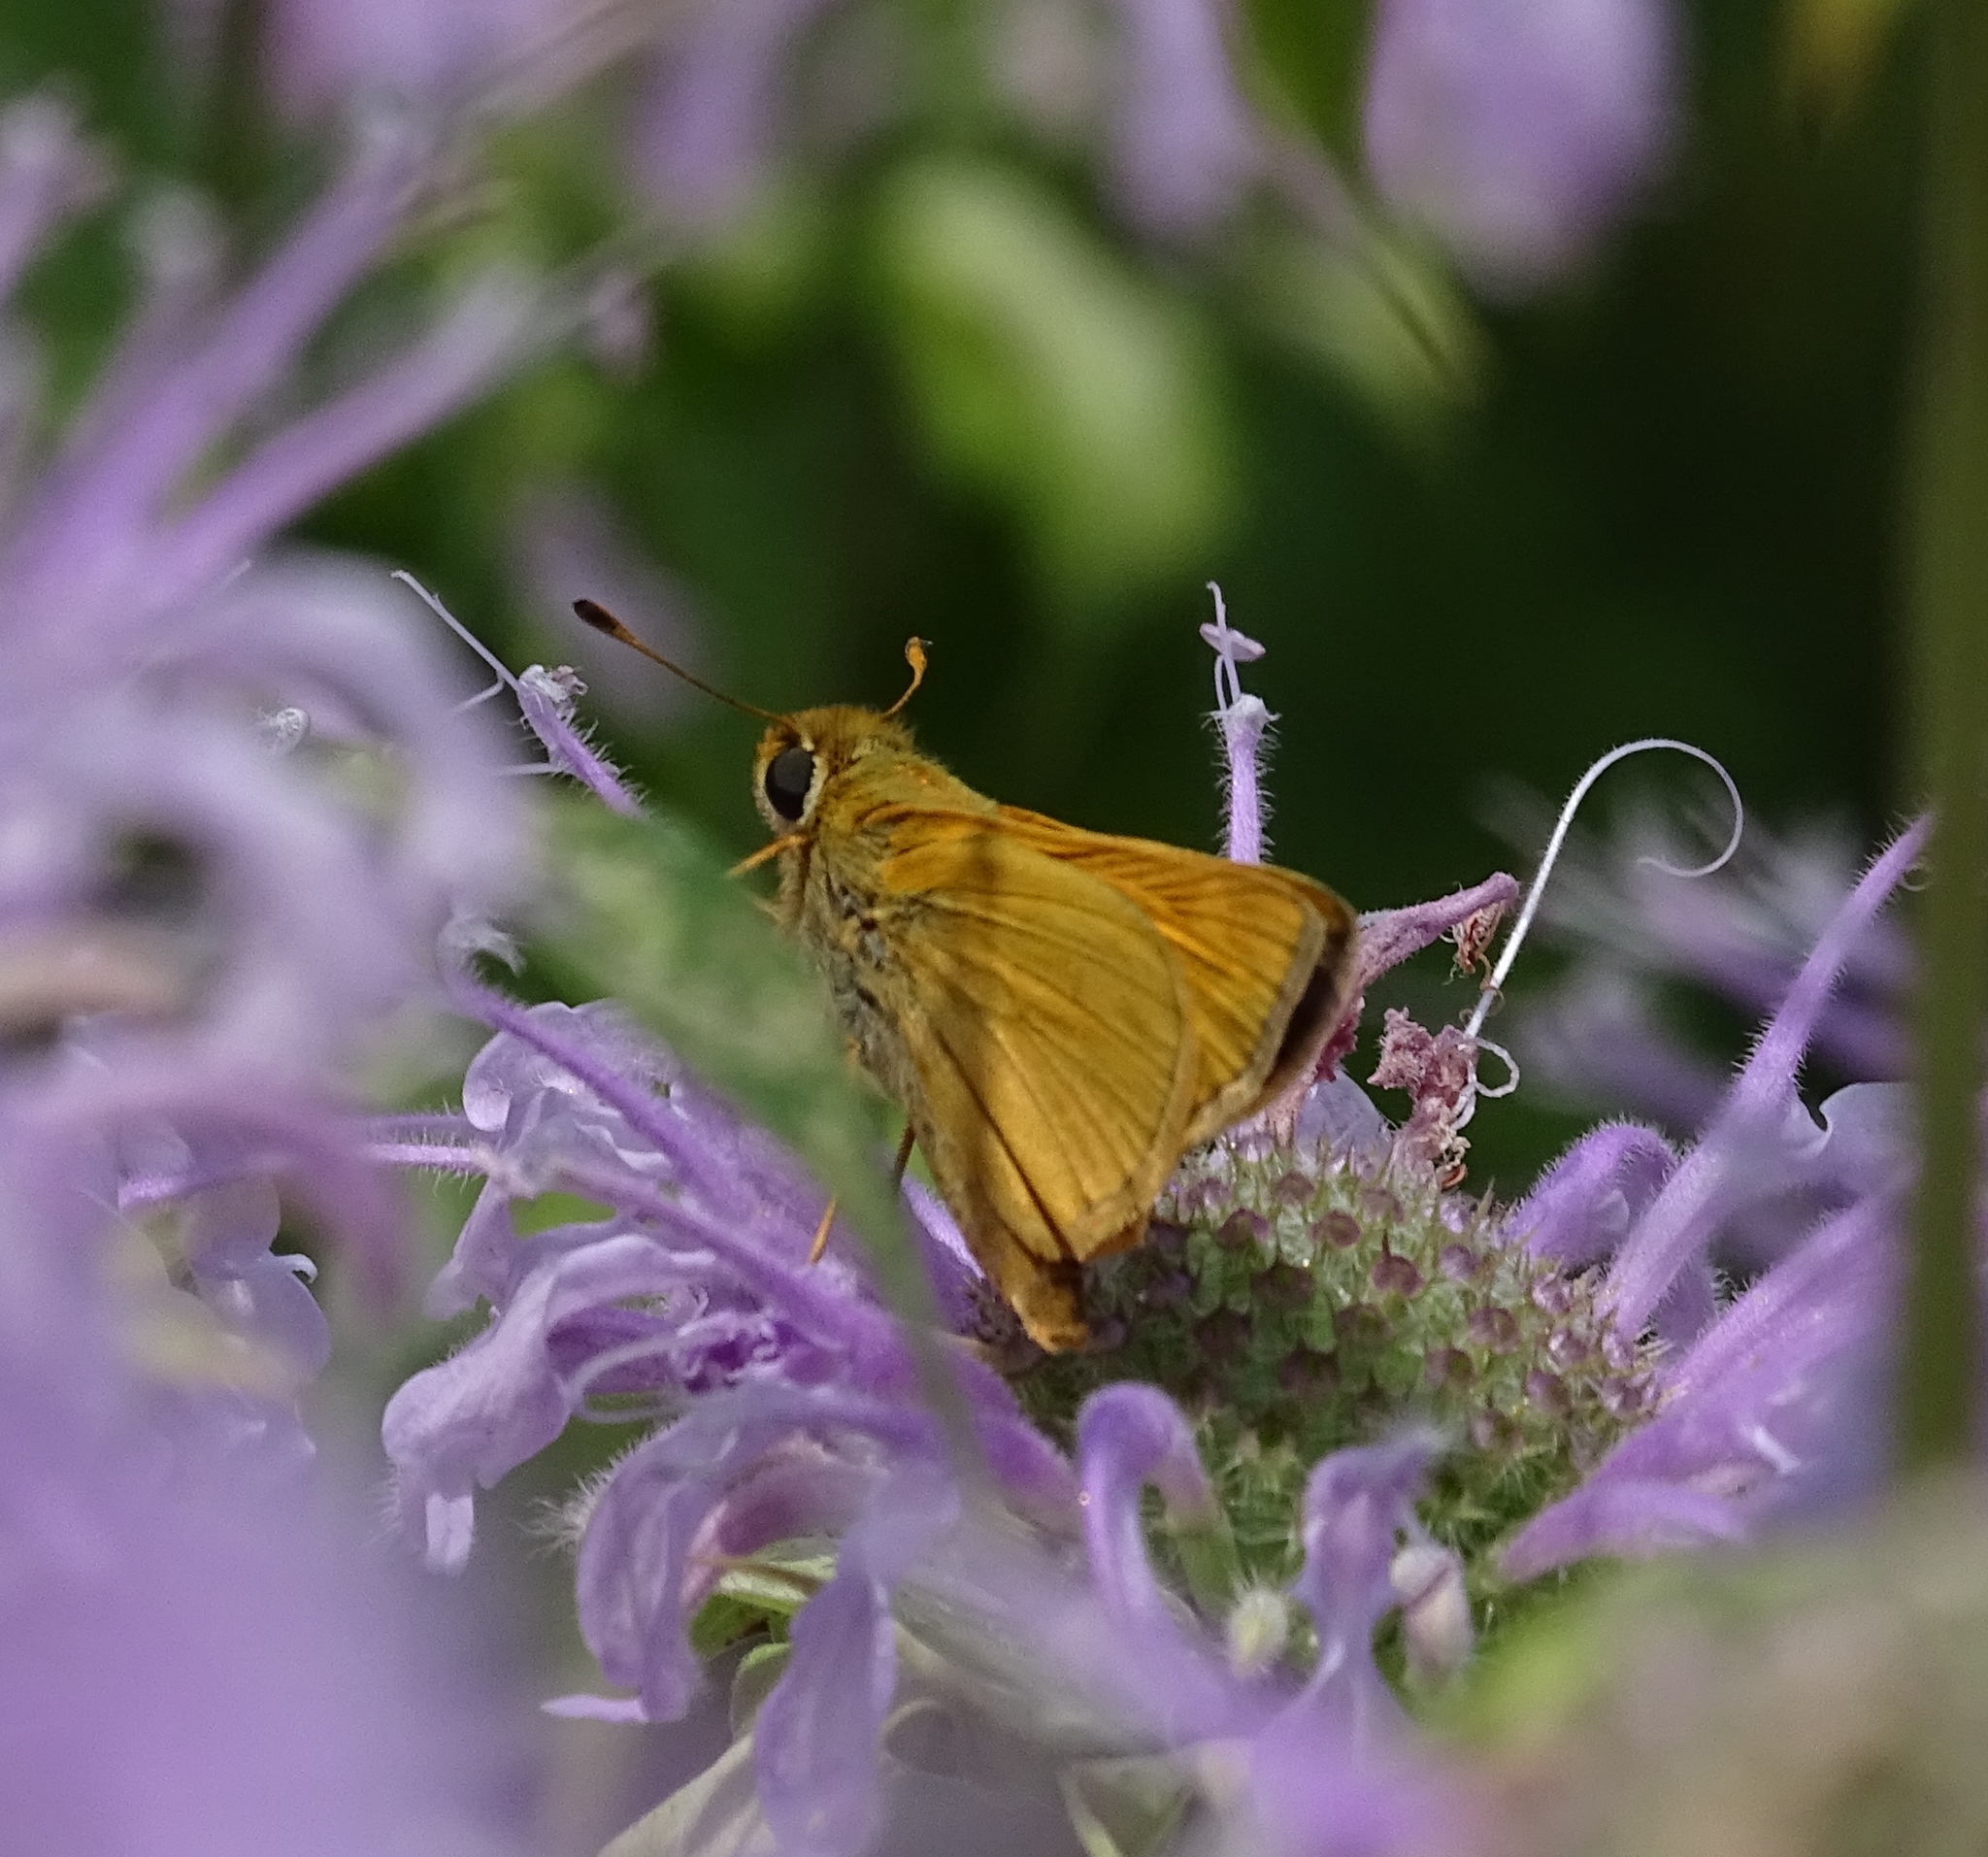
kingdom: Animalia
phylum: Arthropoda
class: Insecta
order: Lepidoptera
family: Hesperiidae
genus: Atalopedes
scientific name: Atalopedes
